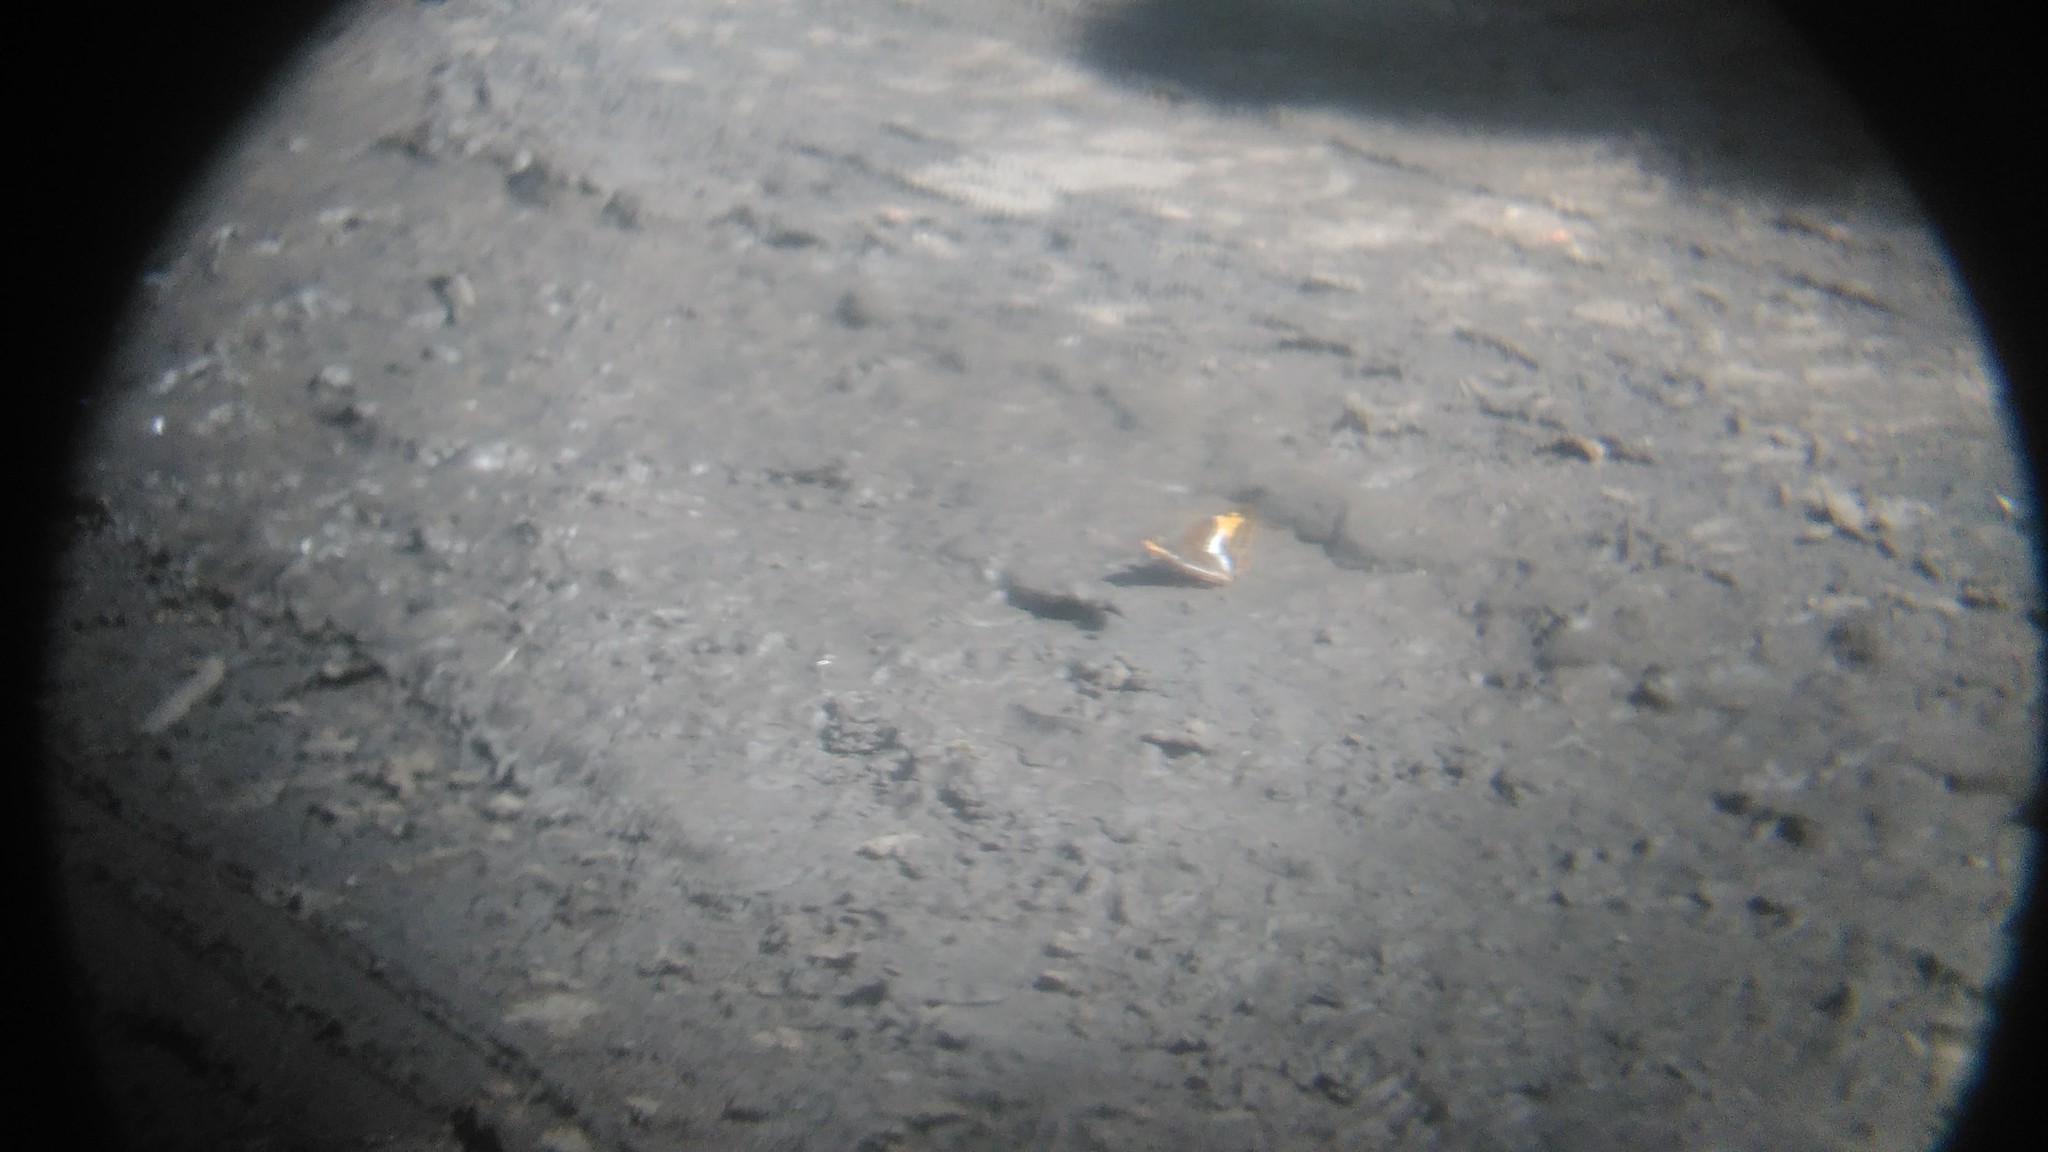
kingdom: Animalia
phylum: Arthropoda
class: Insecta
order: Lepidoptera
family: Nymphalidae
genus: Doxocopa
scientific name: Doxocopa laurentia
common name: Turquoise emperor
